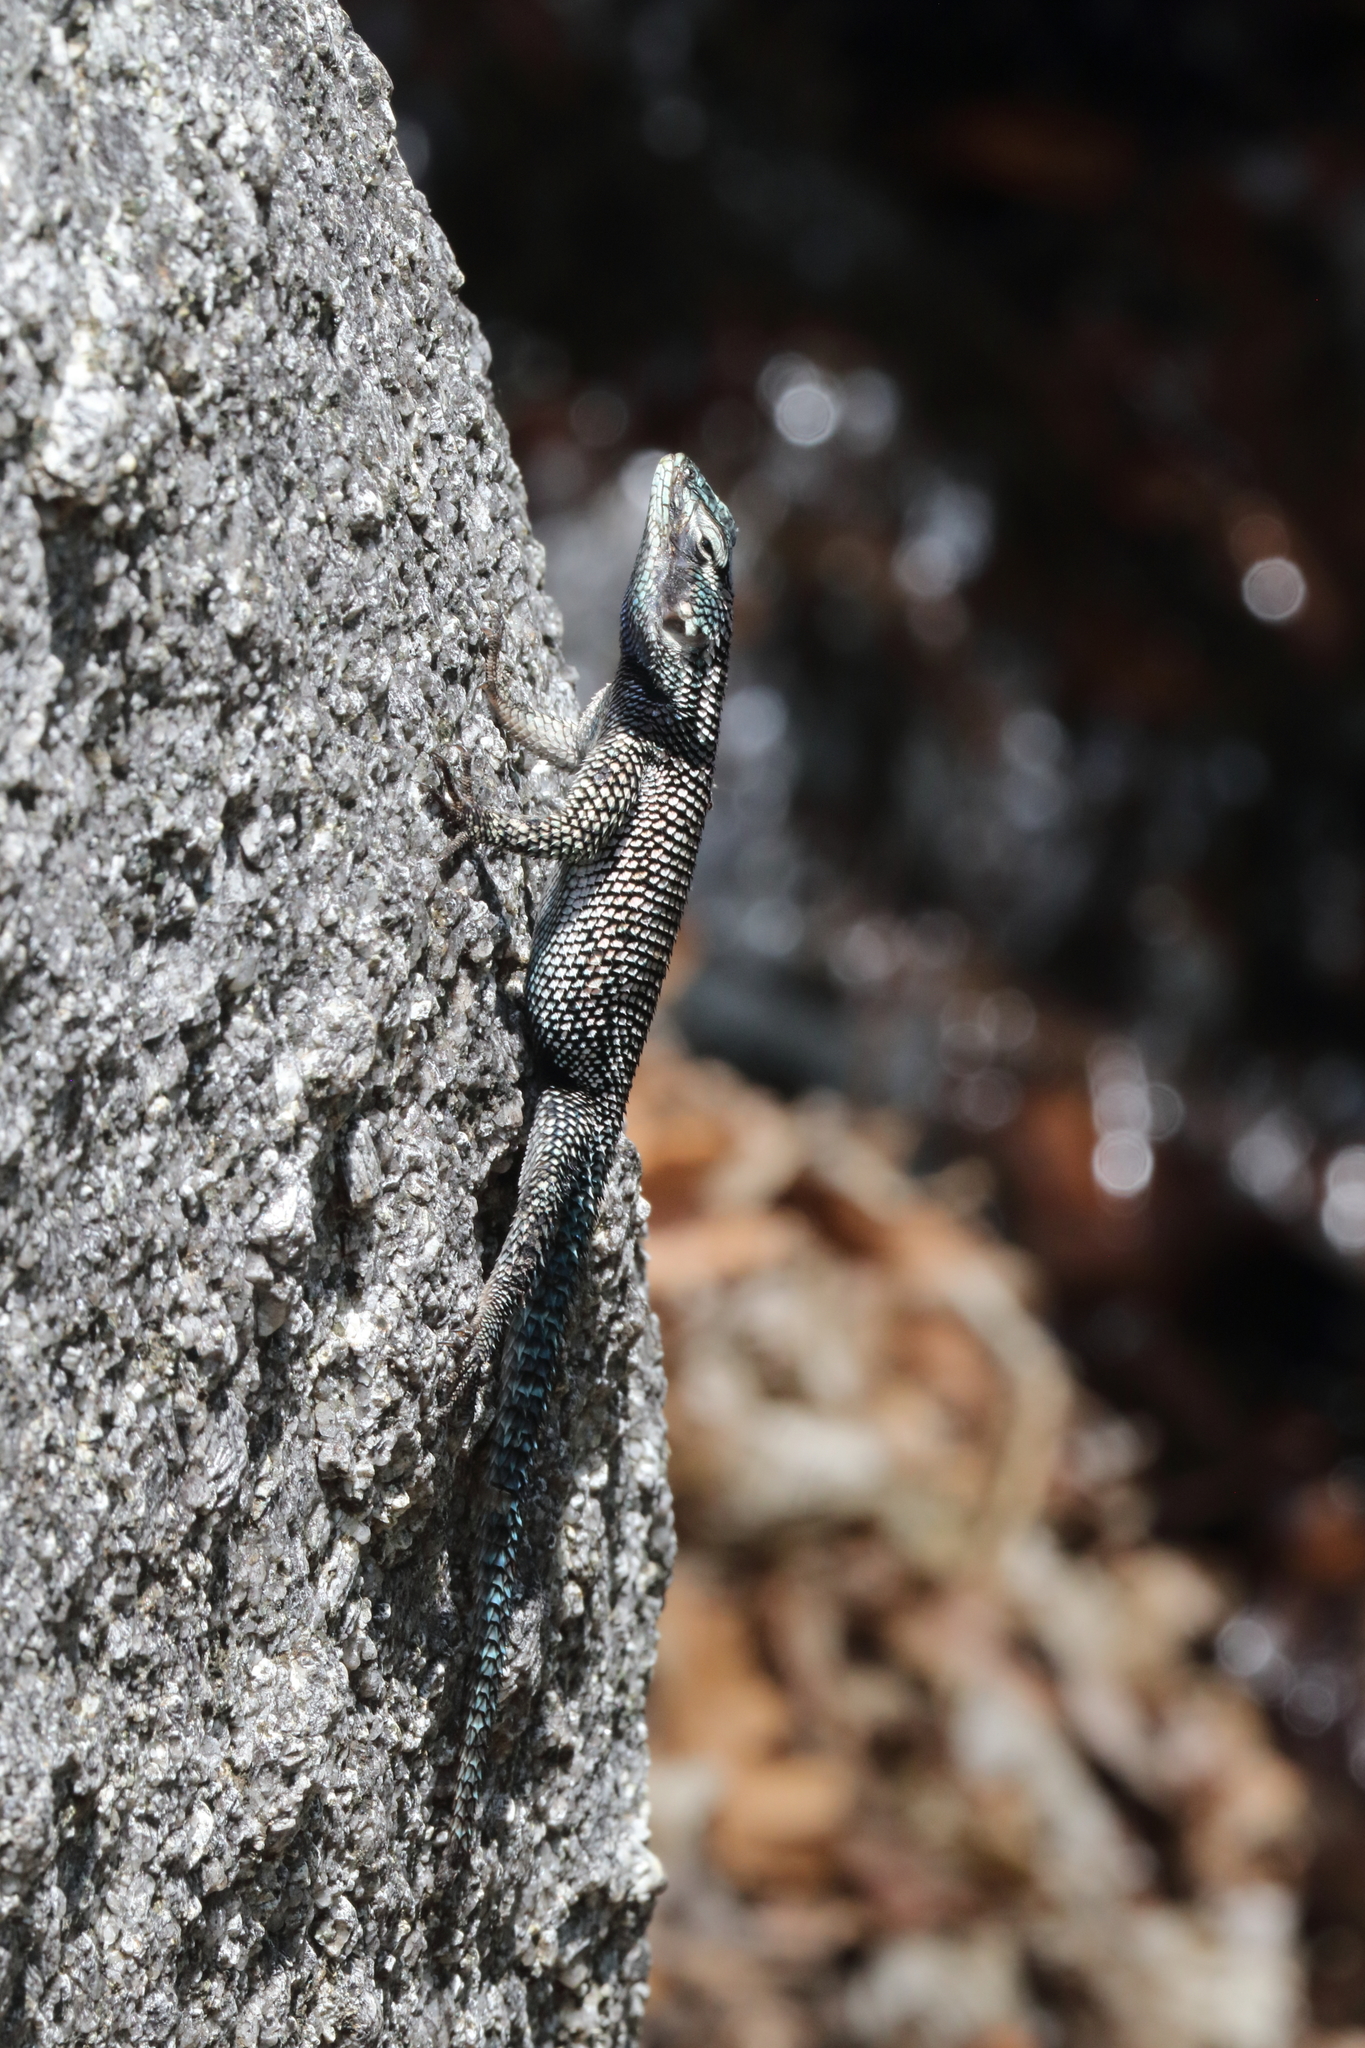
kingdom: Animalia
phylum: Chordata
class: Squamata
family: Phrynosomatidae
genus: Sceloporus
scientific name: Sceloporus jarrovii
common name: Yarrow's spiny lizard
